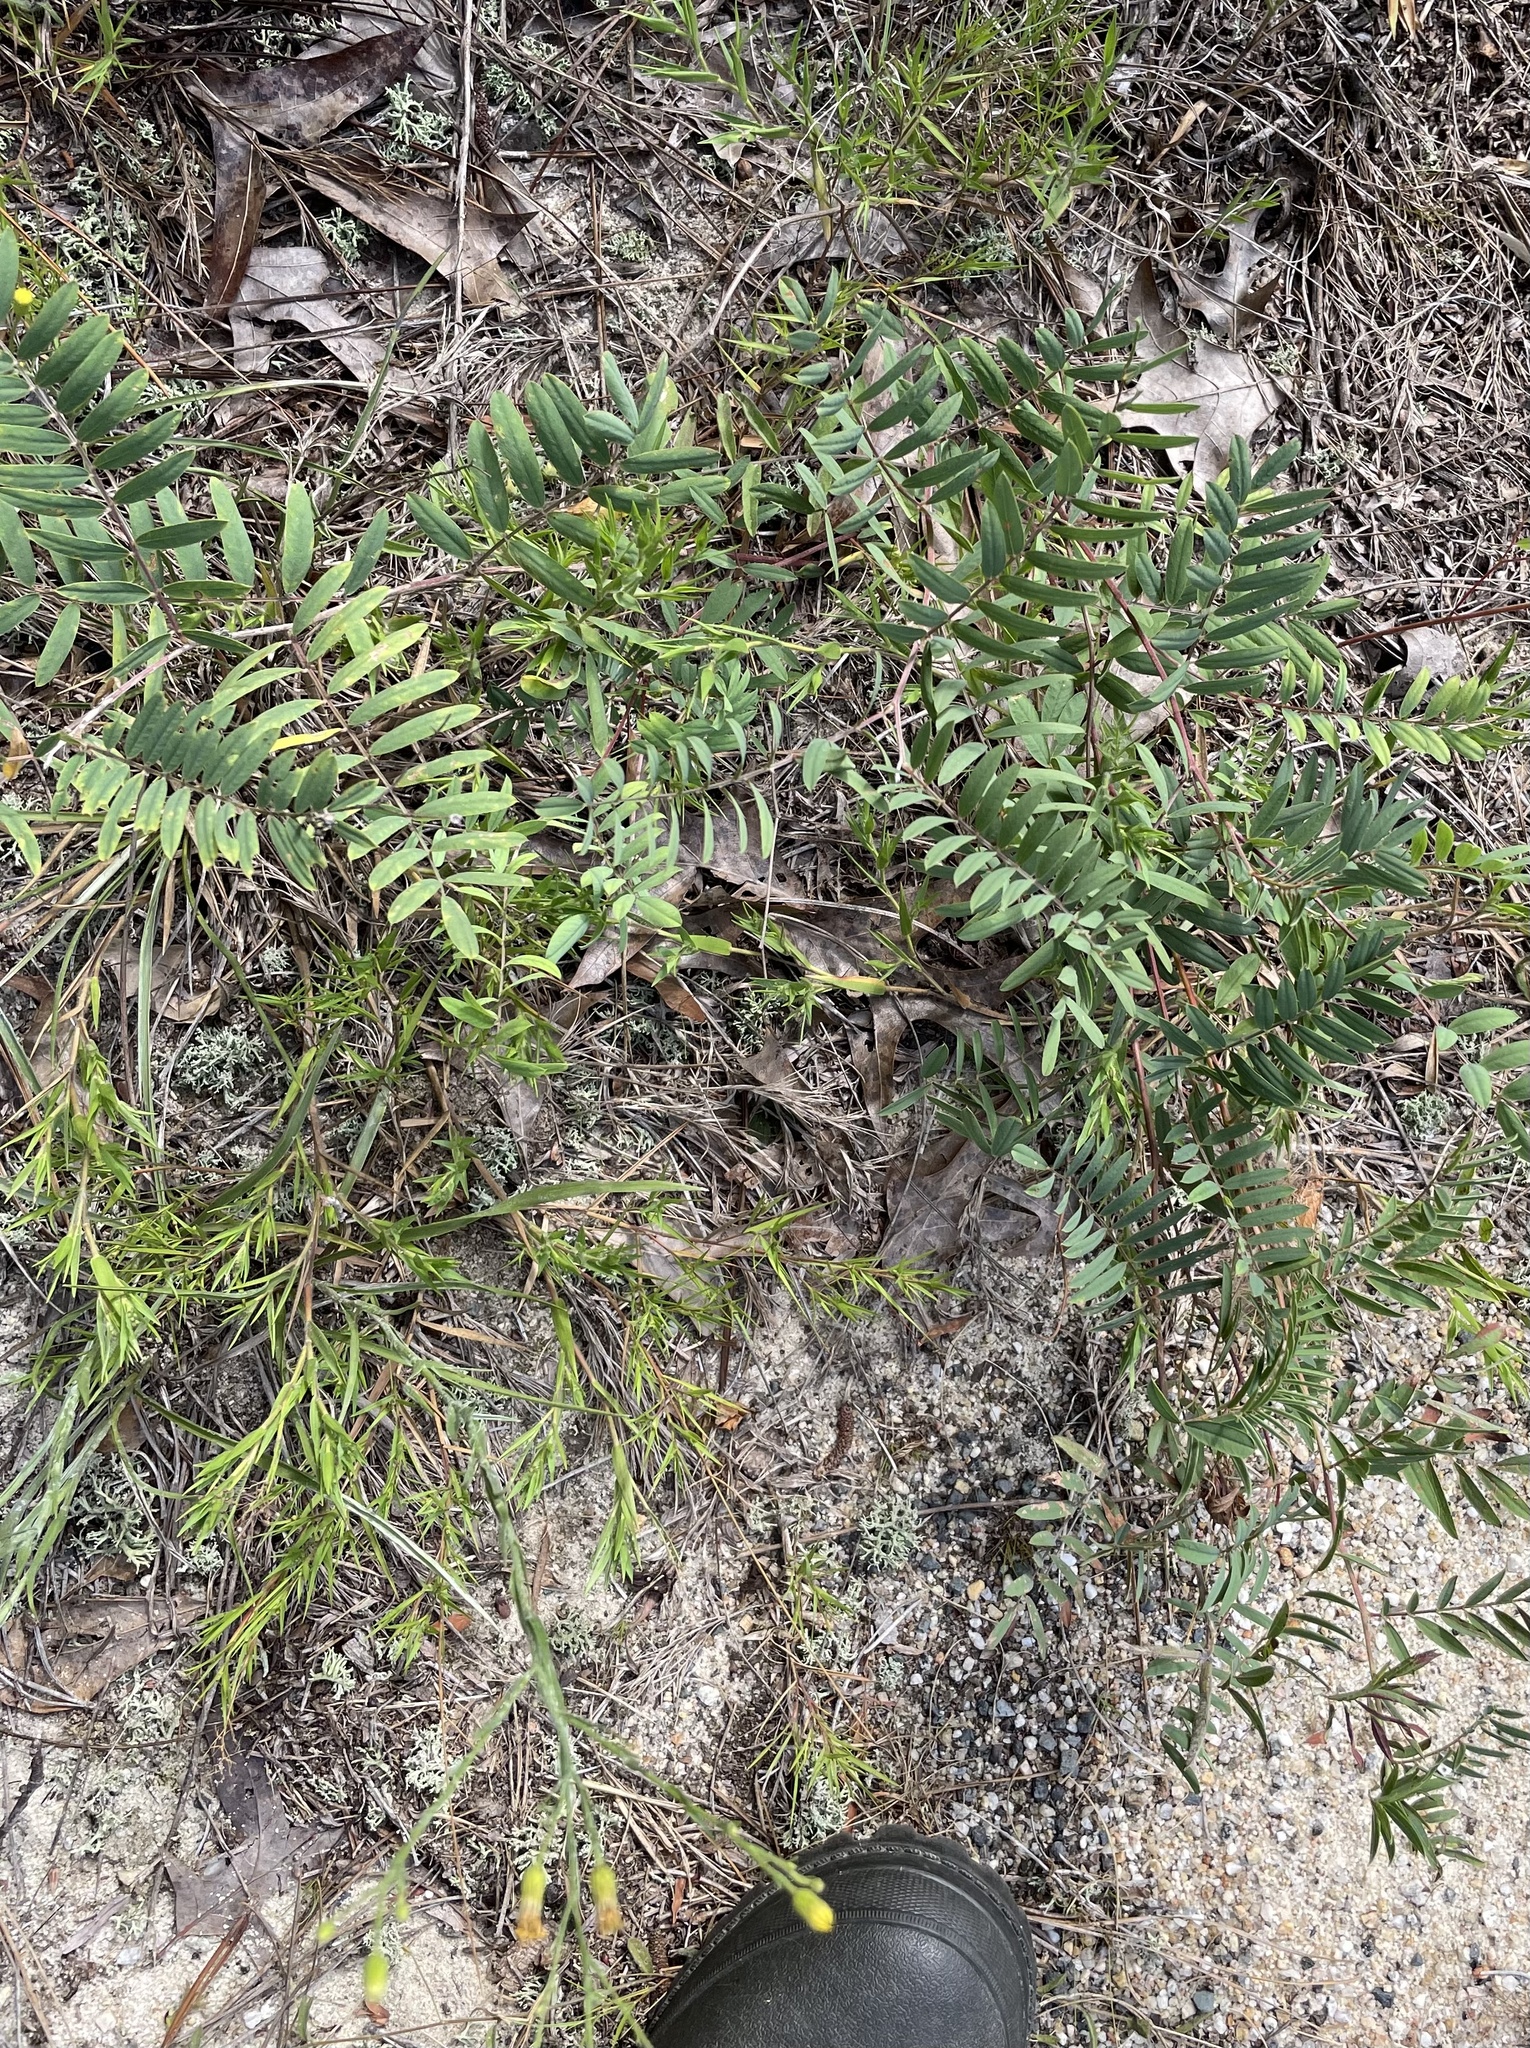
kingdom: Plantae
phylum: Tracheophyta
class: Magnoliopsida
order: Fabales
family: Fabaceae
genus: Tephrosia
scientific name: Tephrosia virginiana
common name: Rabbit-pea
